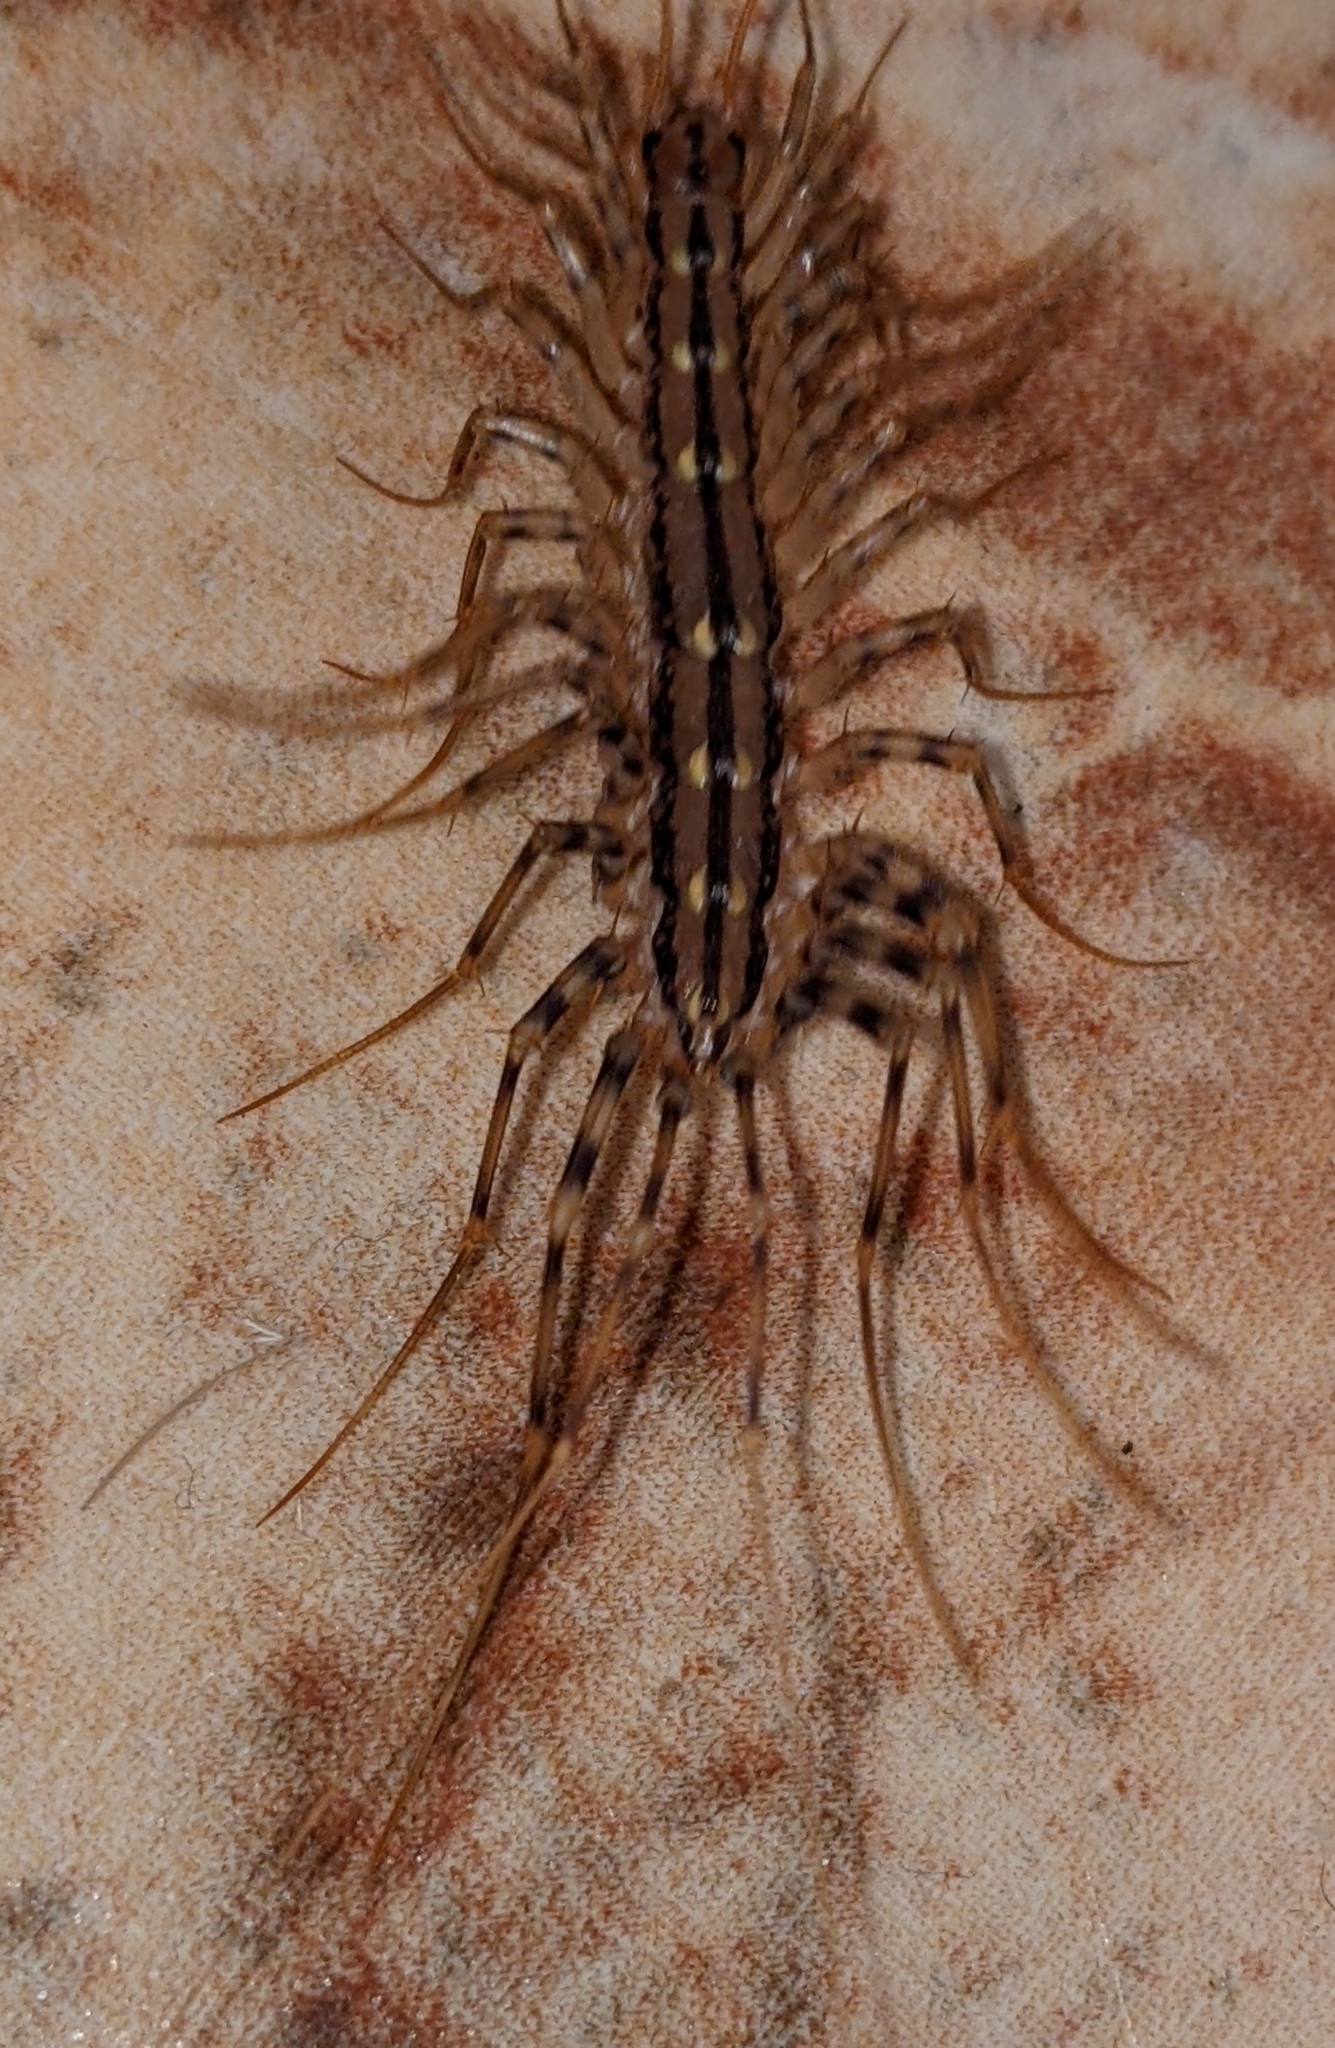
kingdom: Animalia
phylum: Arthropoda
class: Chilopoda
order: Scutigeromorpha
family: Scutigeridae
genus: Scutigera
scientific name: Scutigera coleoptrata
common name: House centipede
